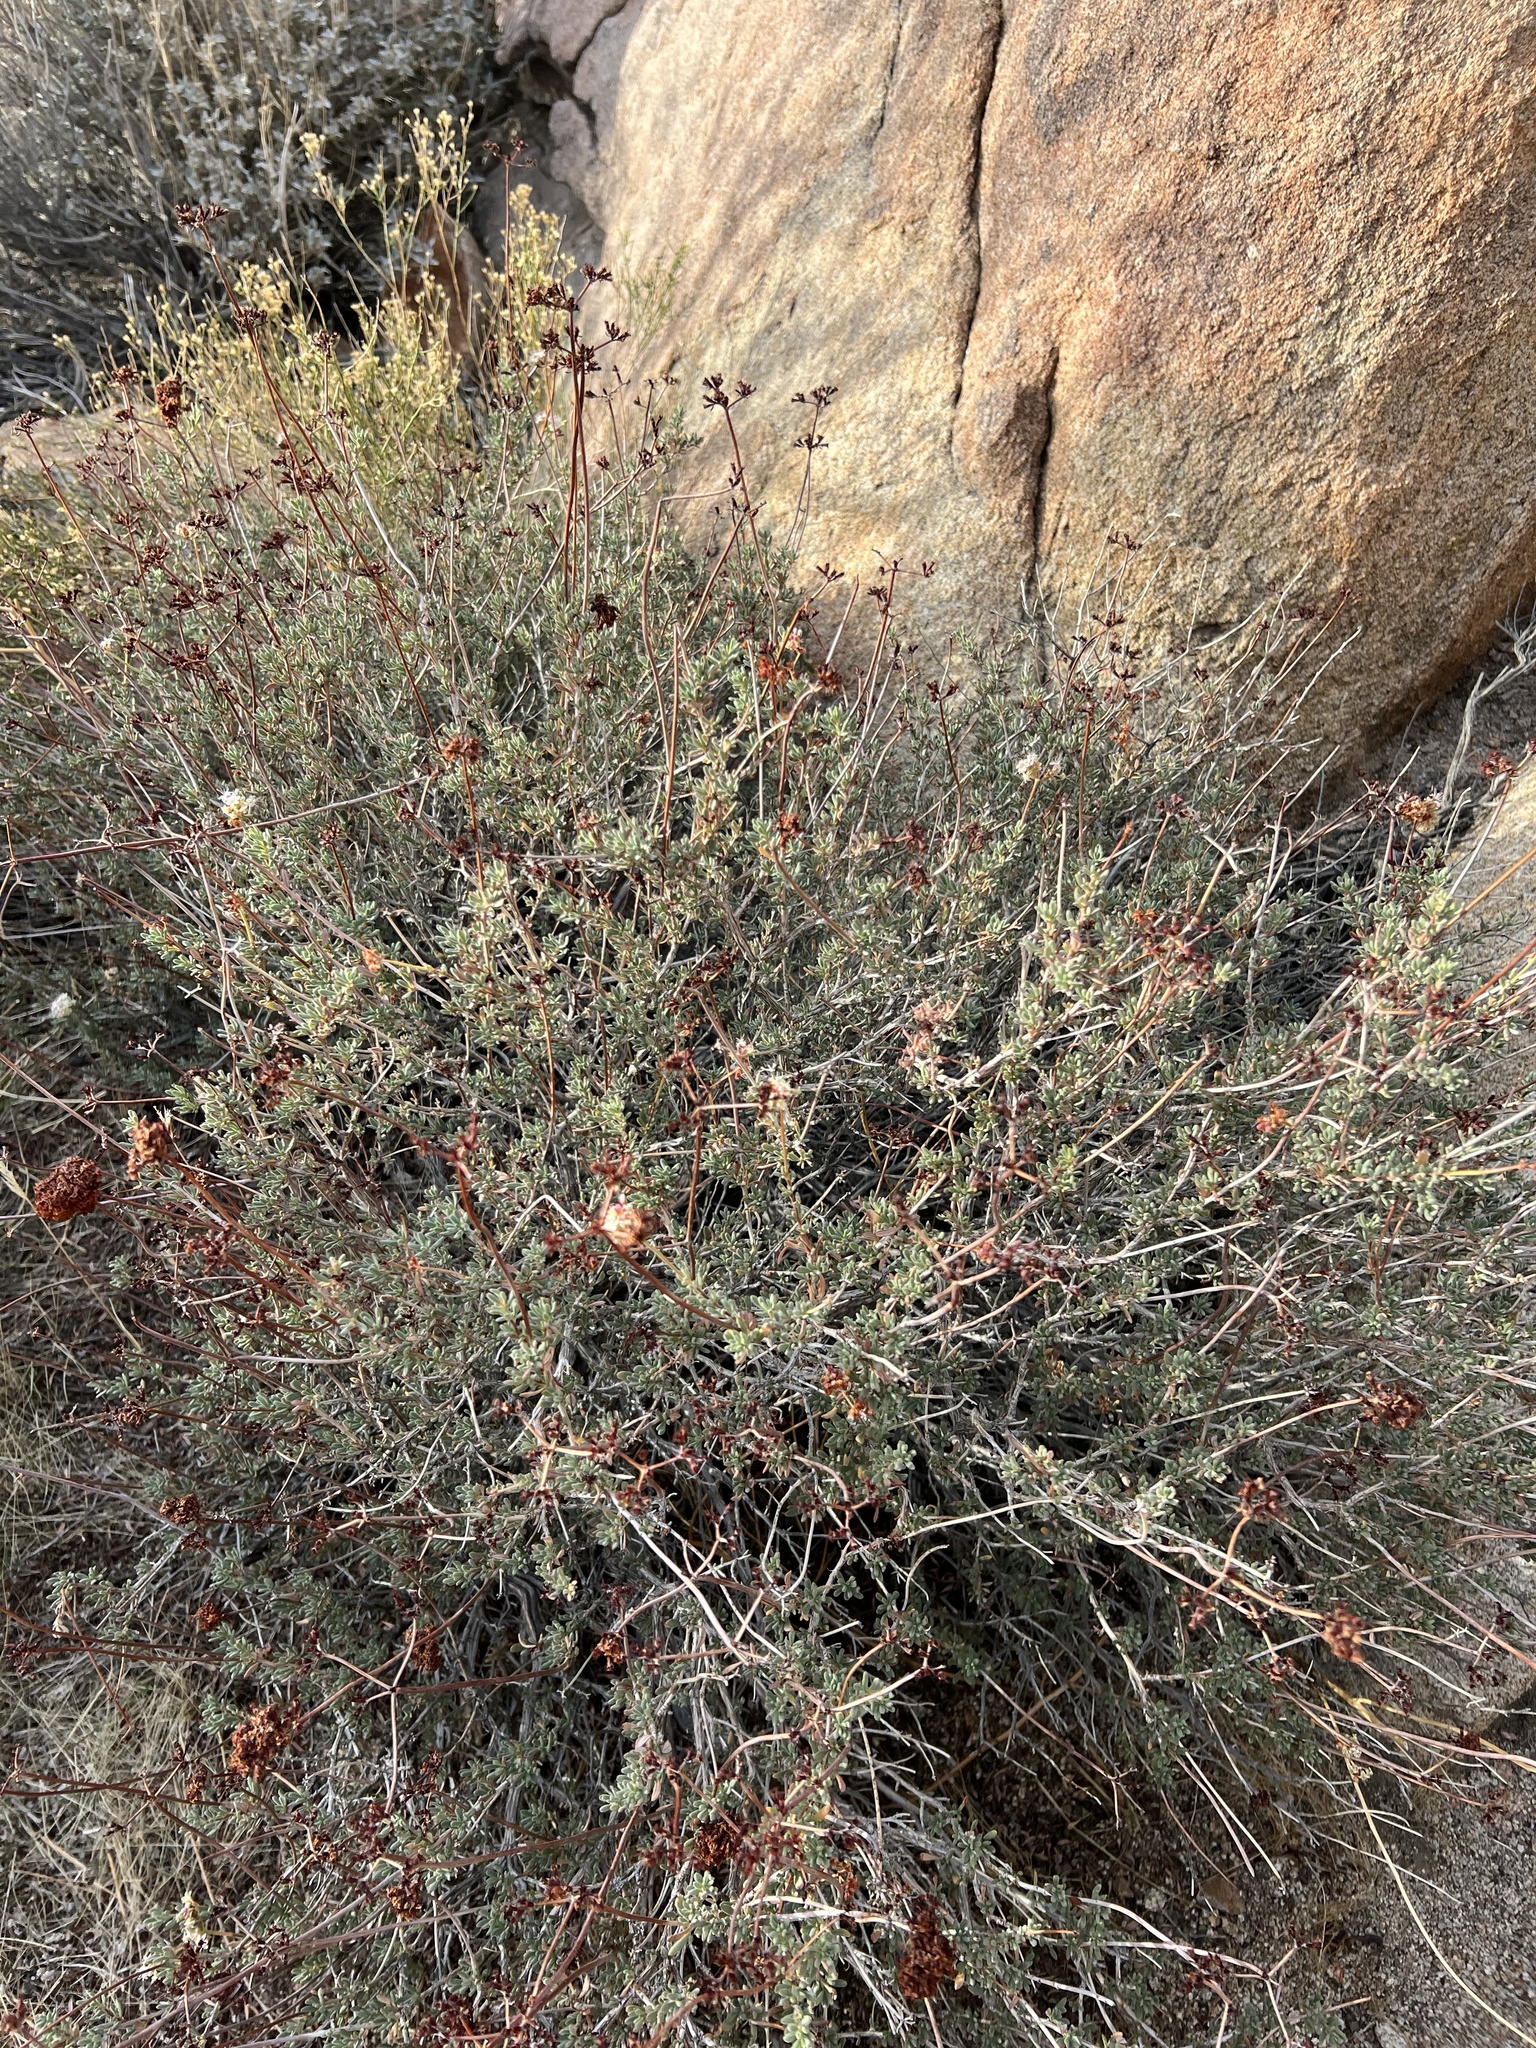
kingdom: Plantae
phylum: Tracheophyta
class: Magnoliopsida
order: Caryophyllales
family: Polygonaceae
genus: Eriogonum
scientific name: Eriogonum fasciculatum
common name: California wild buckwheat
